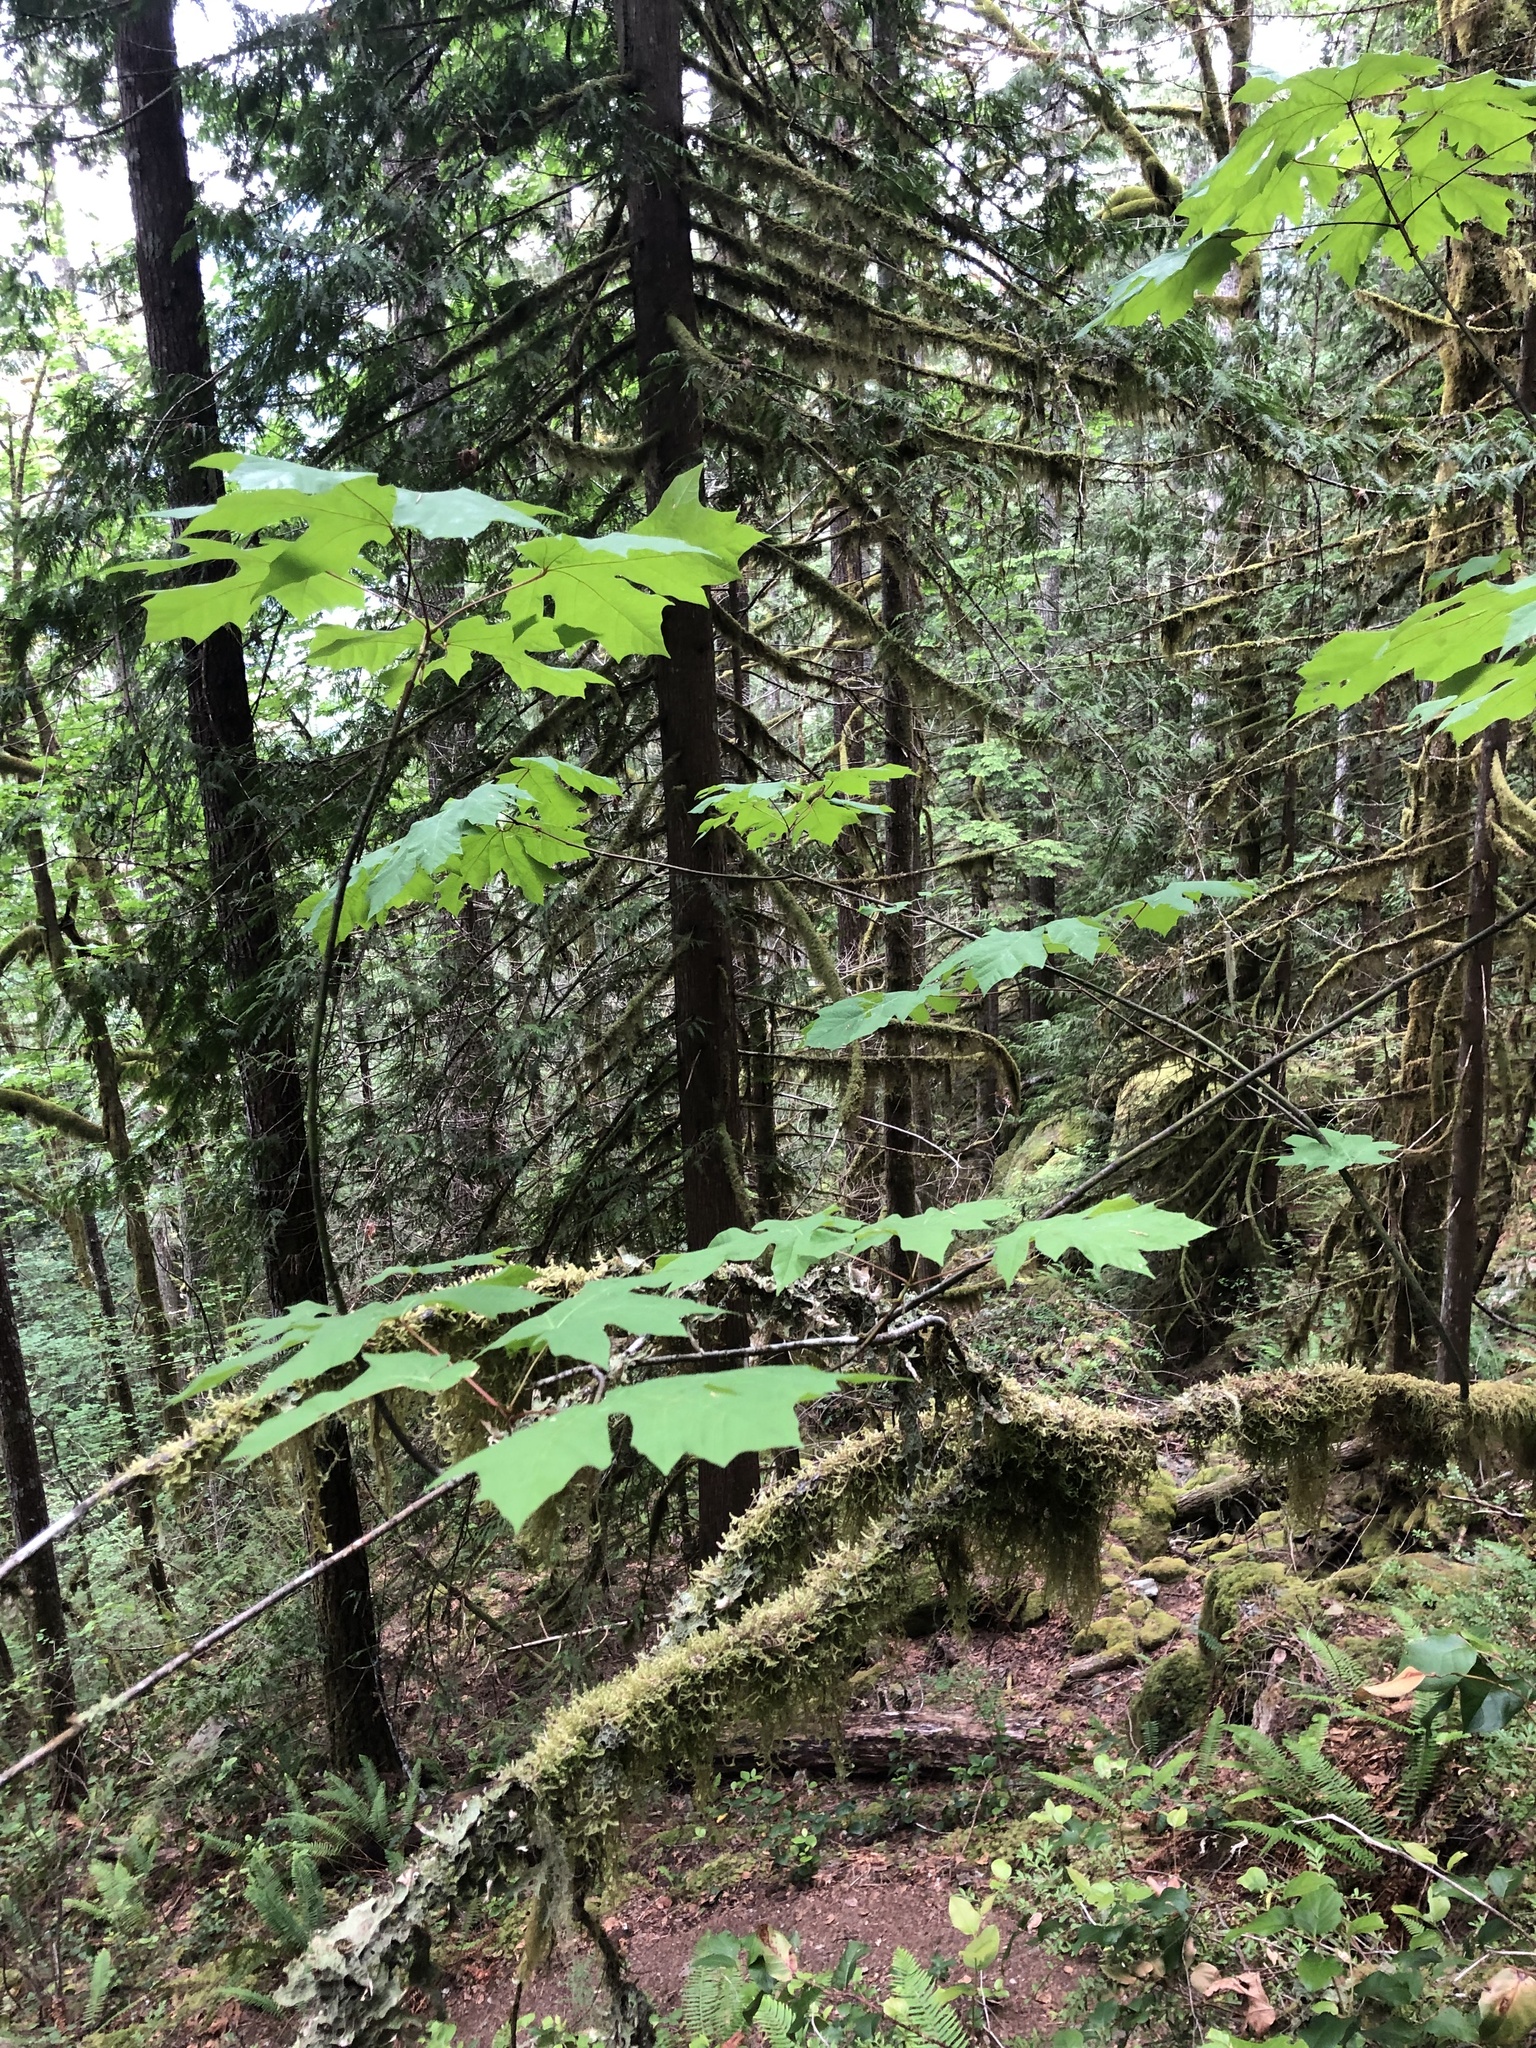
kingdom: Plantae
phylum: Tracheophyta
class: Magnoliopsida
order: Sapindales
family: Sapindaceae
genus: Acer
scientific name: Acer macrophyllum
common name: Oregon maple
